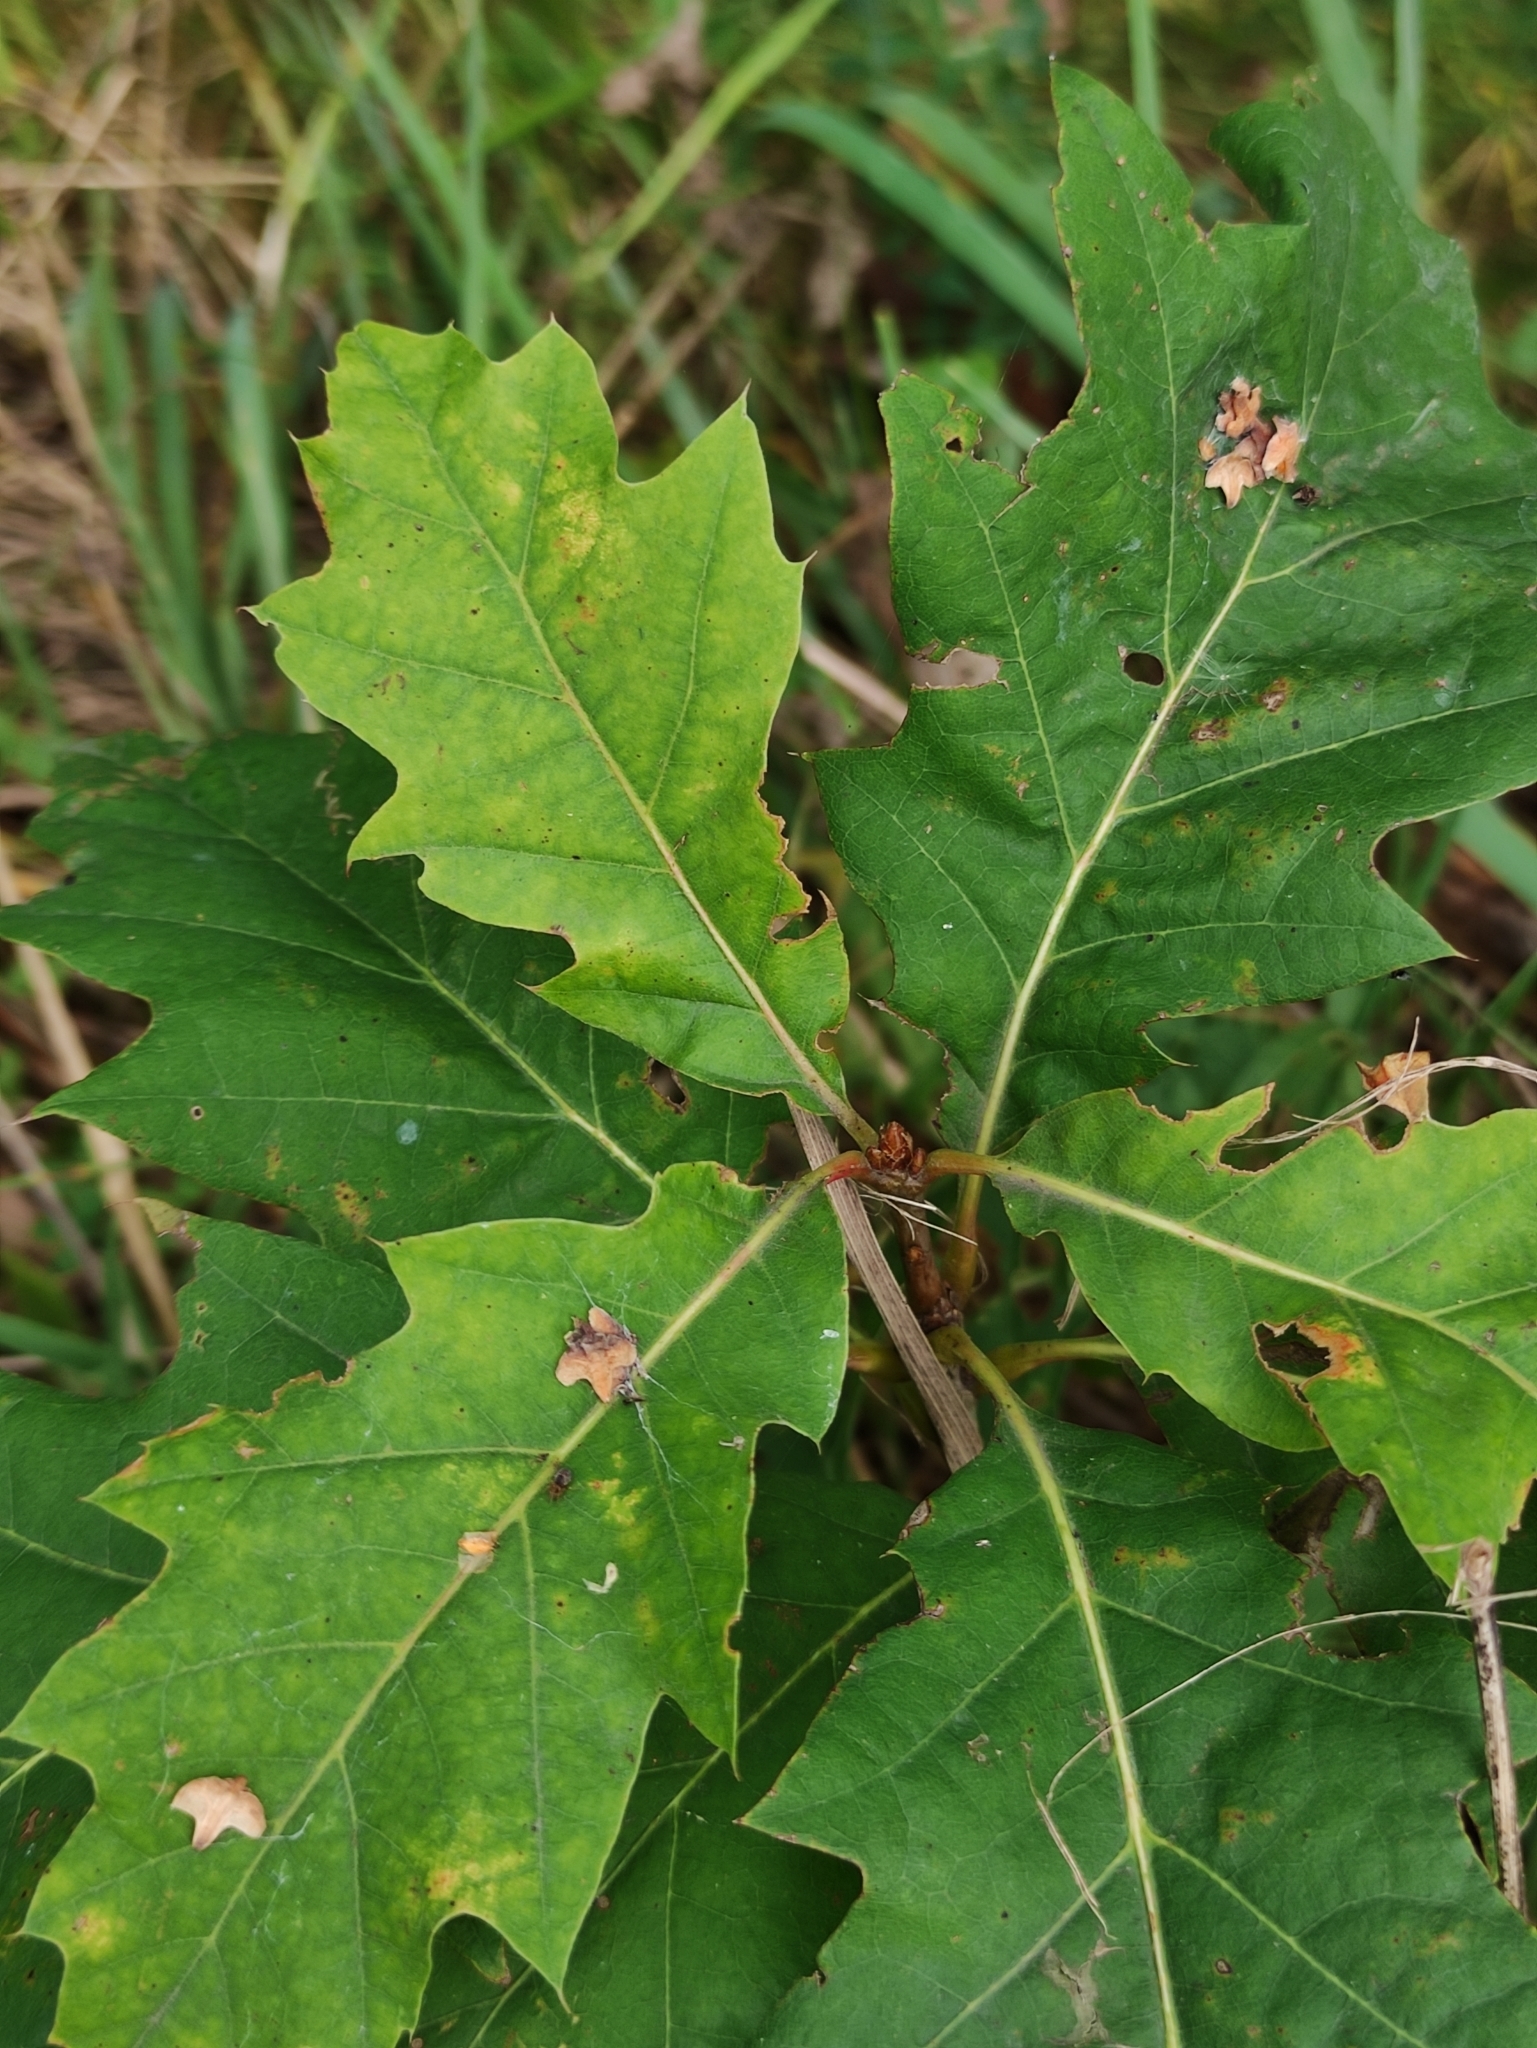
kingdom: Plantae
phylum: Tracheophyta
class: Magnoliopsida
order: Fagales
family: Fagaceae
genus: Quercus
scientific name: Quercus rubra
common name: Red oak
